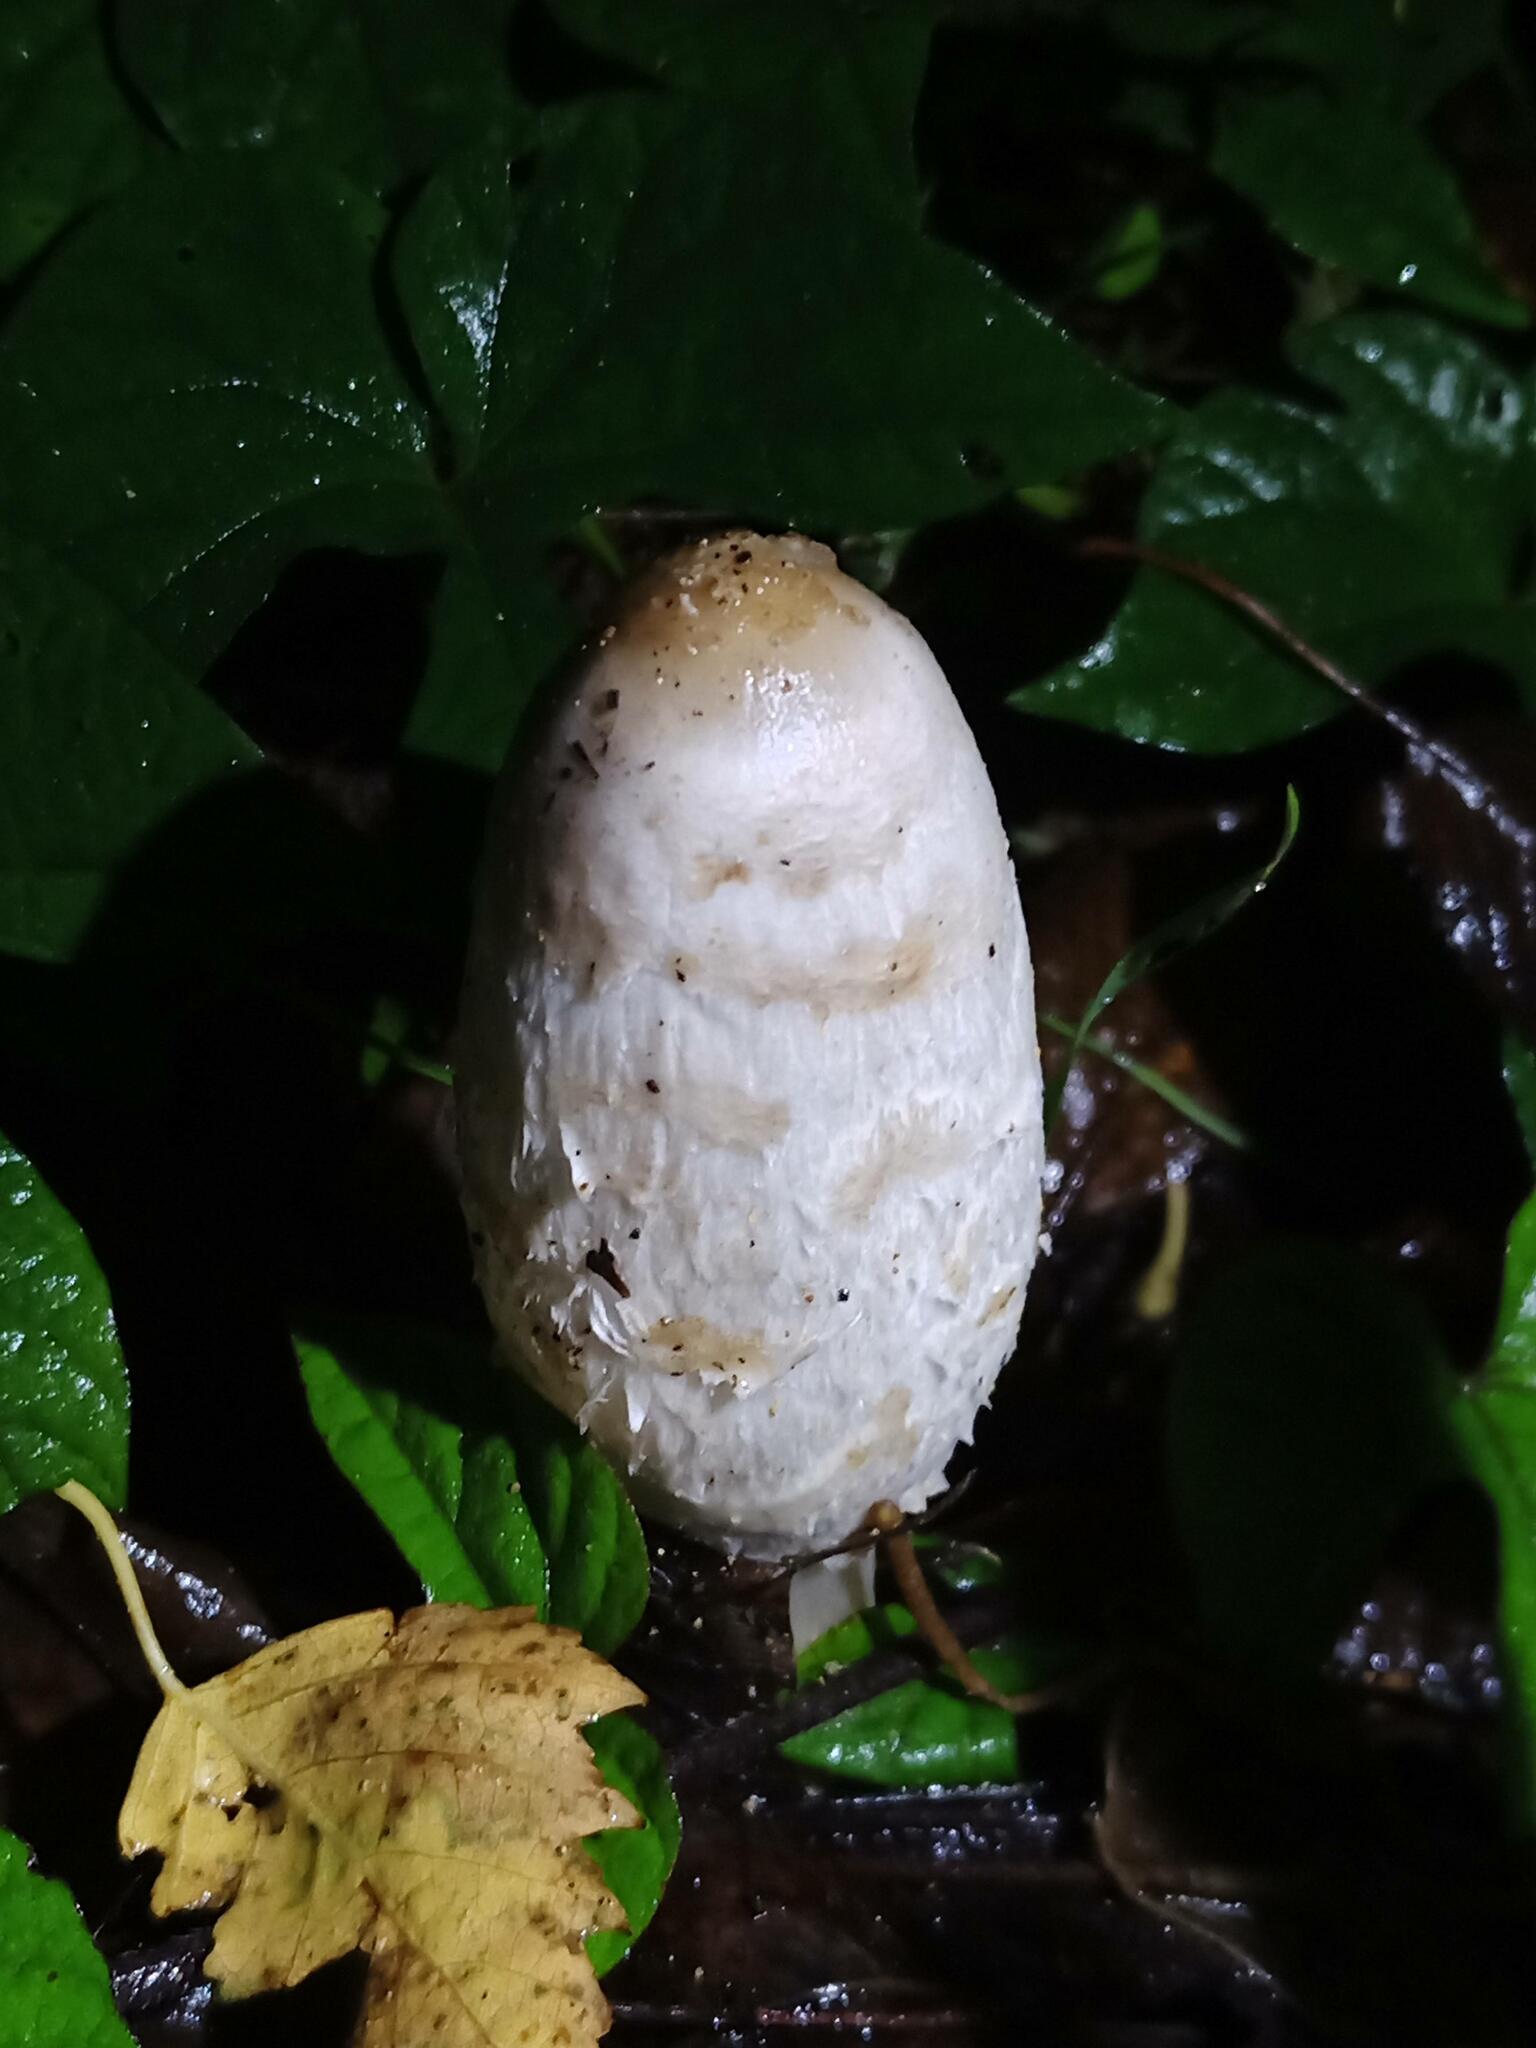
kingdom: Fungi
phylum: Basidiomycota
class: Agaricomycetes
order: Agaricales
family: Agaricaceae
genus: Coprinus
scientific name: Coprinus comatus
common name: Lawyer's wig
